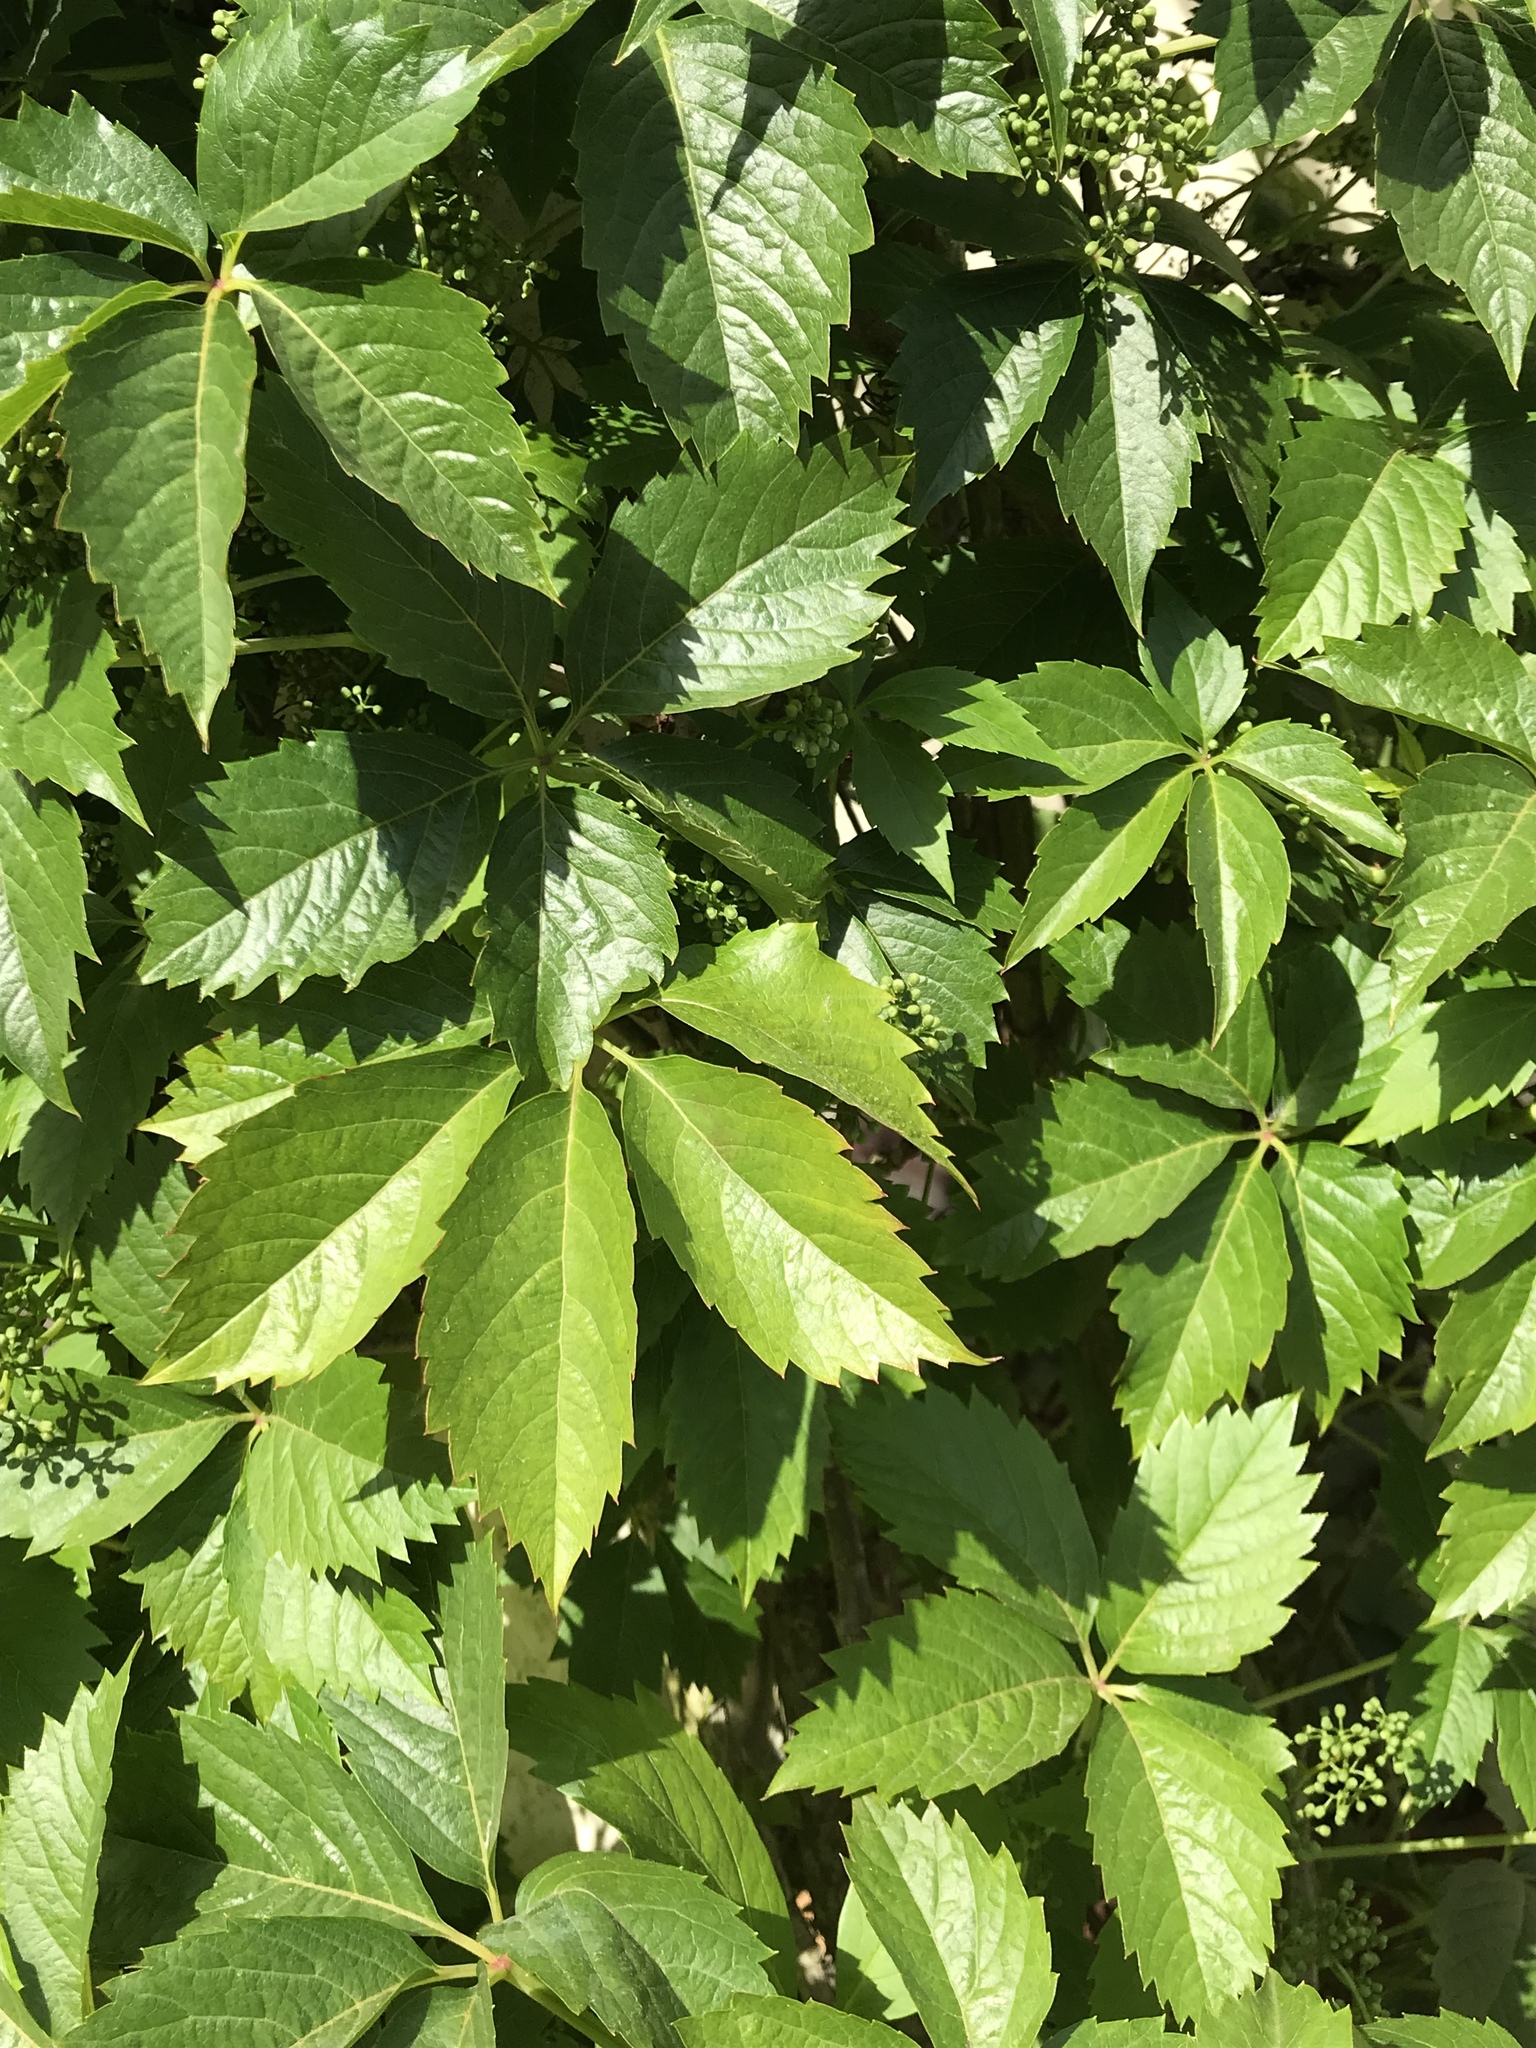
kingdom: Plantae
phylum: Tracheophyta
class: Magnoliopsida
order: Vitales
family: Vitaceae
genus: Parthenocissus
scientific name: Parthenocissus quinquefolia
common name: Virginia-creeper
